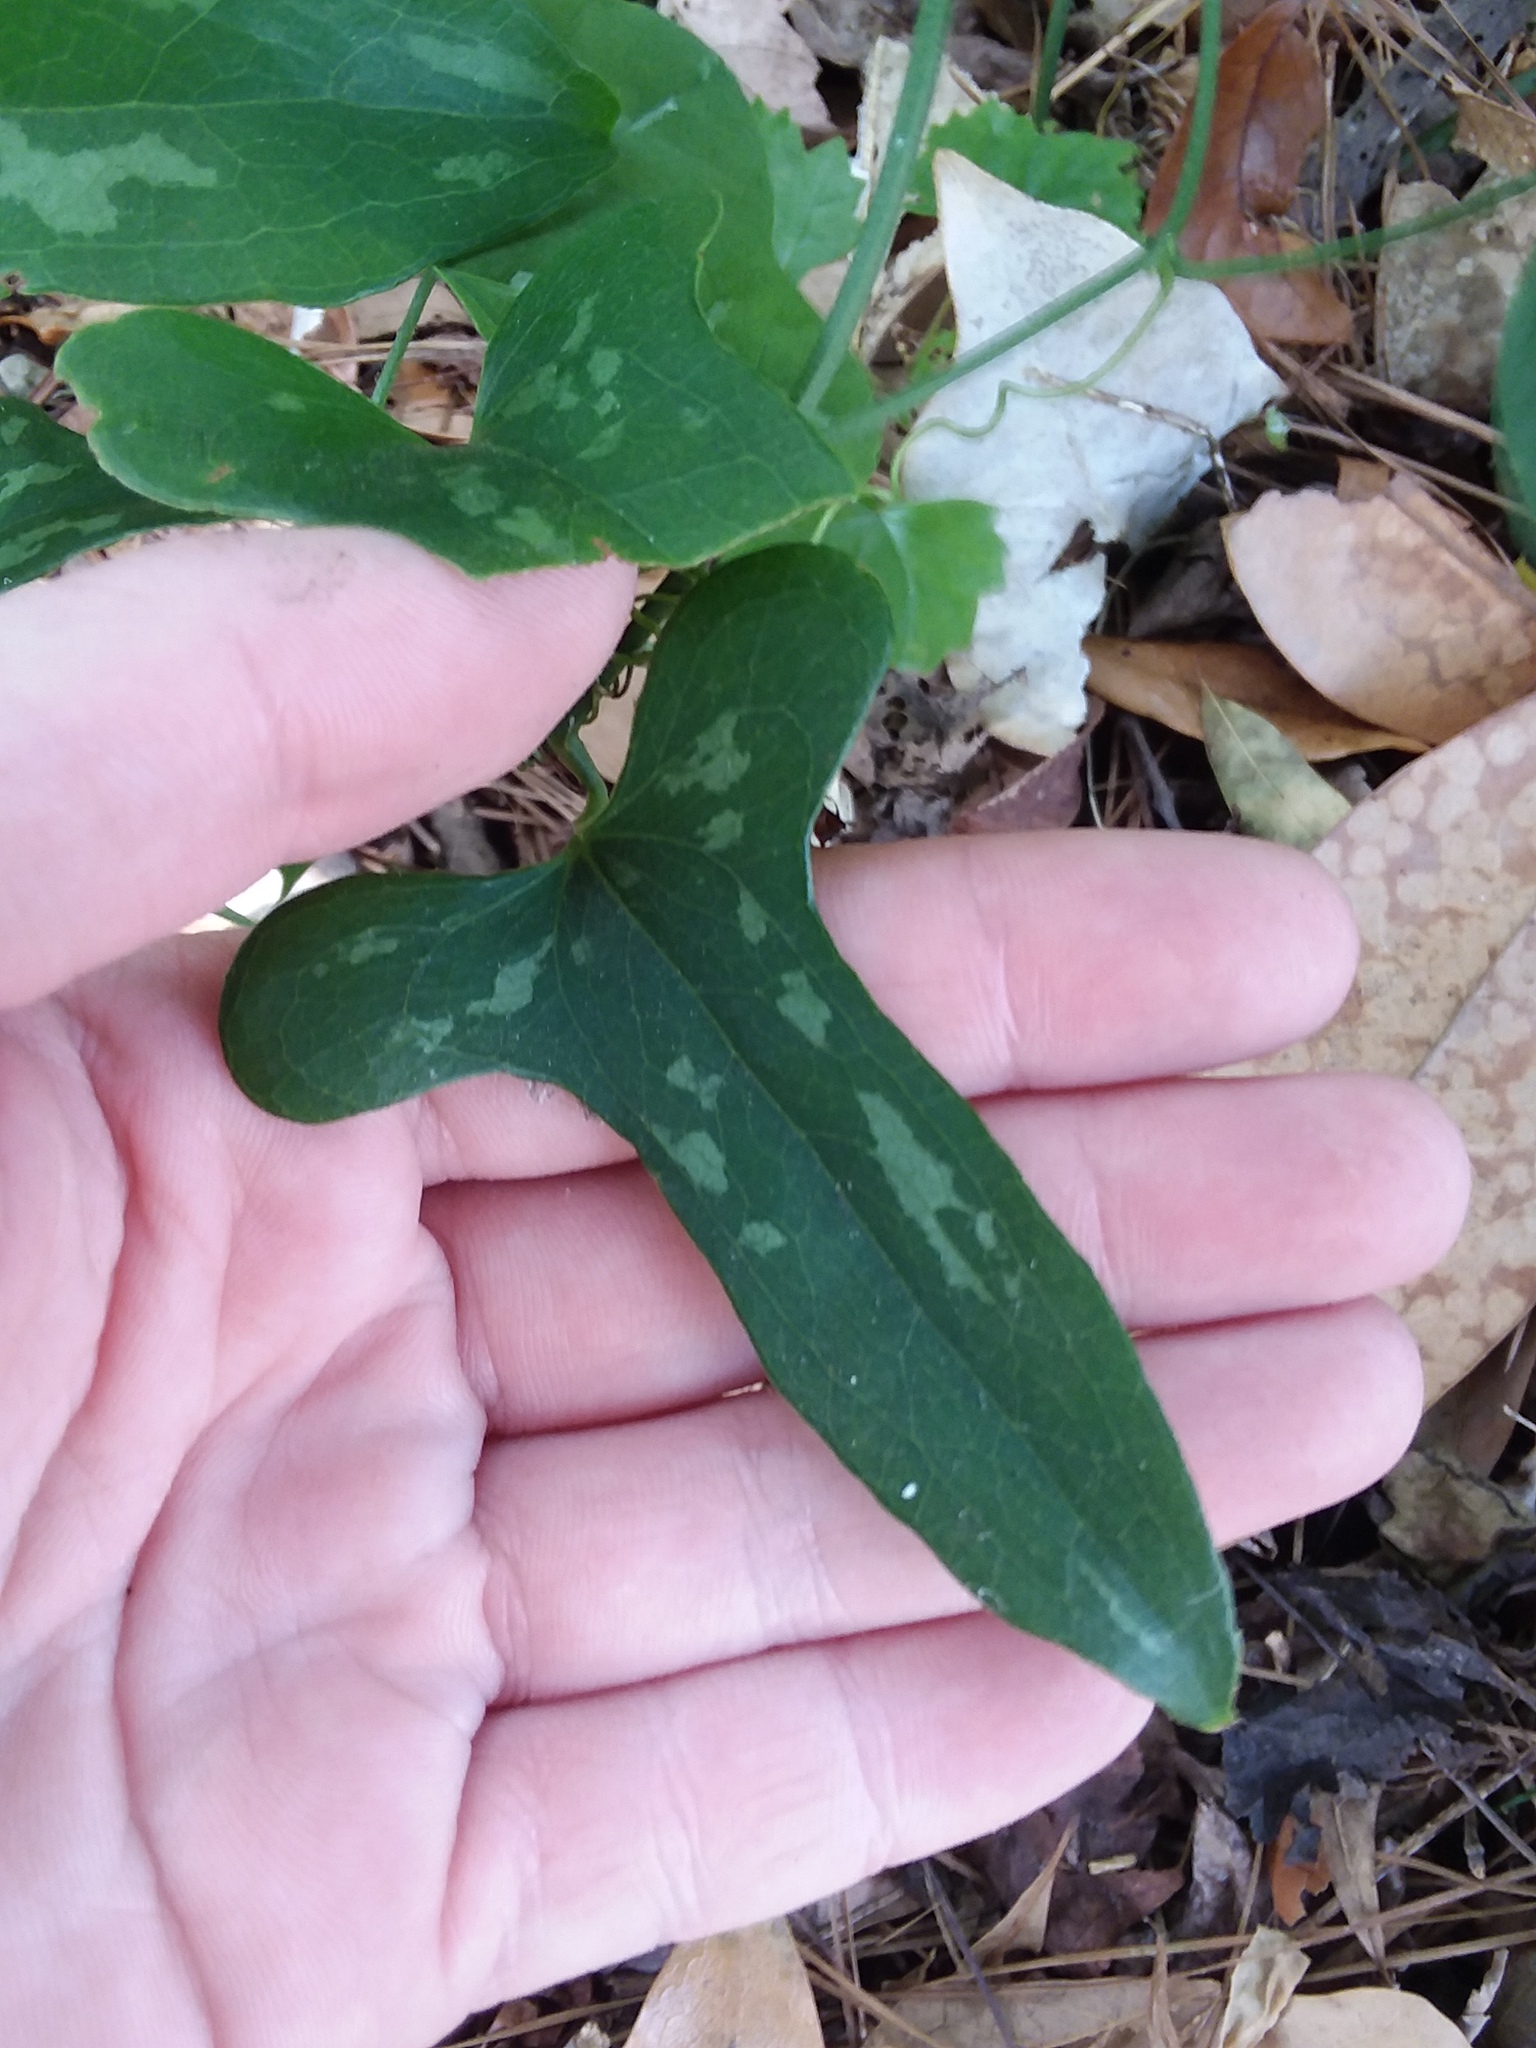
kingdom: Plantae
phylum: Tracheophyta
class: Magnoliopsida
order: Malpighiales
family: Passifloraceae
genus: Passiflora
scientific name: Passiflora lutea
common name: Yellow passionflower
